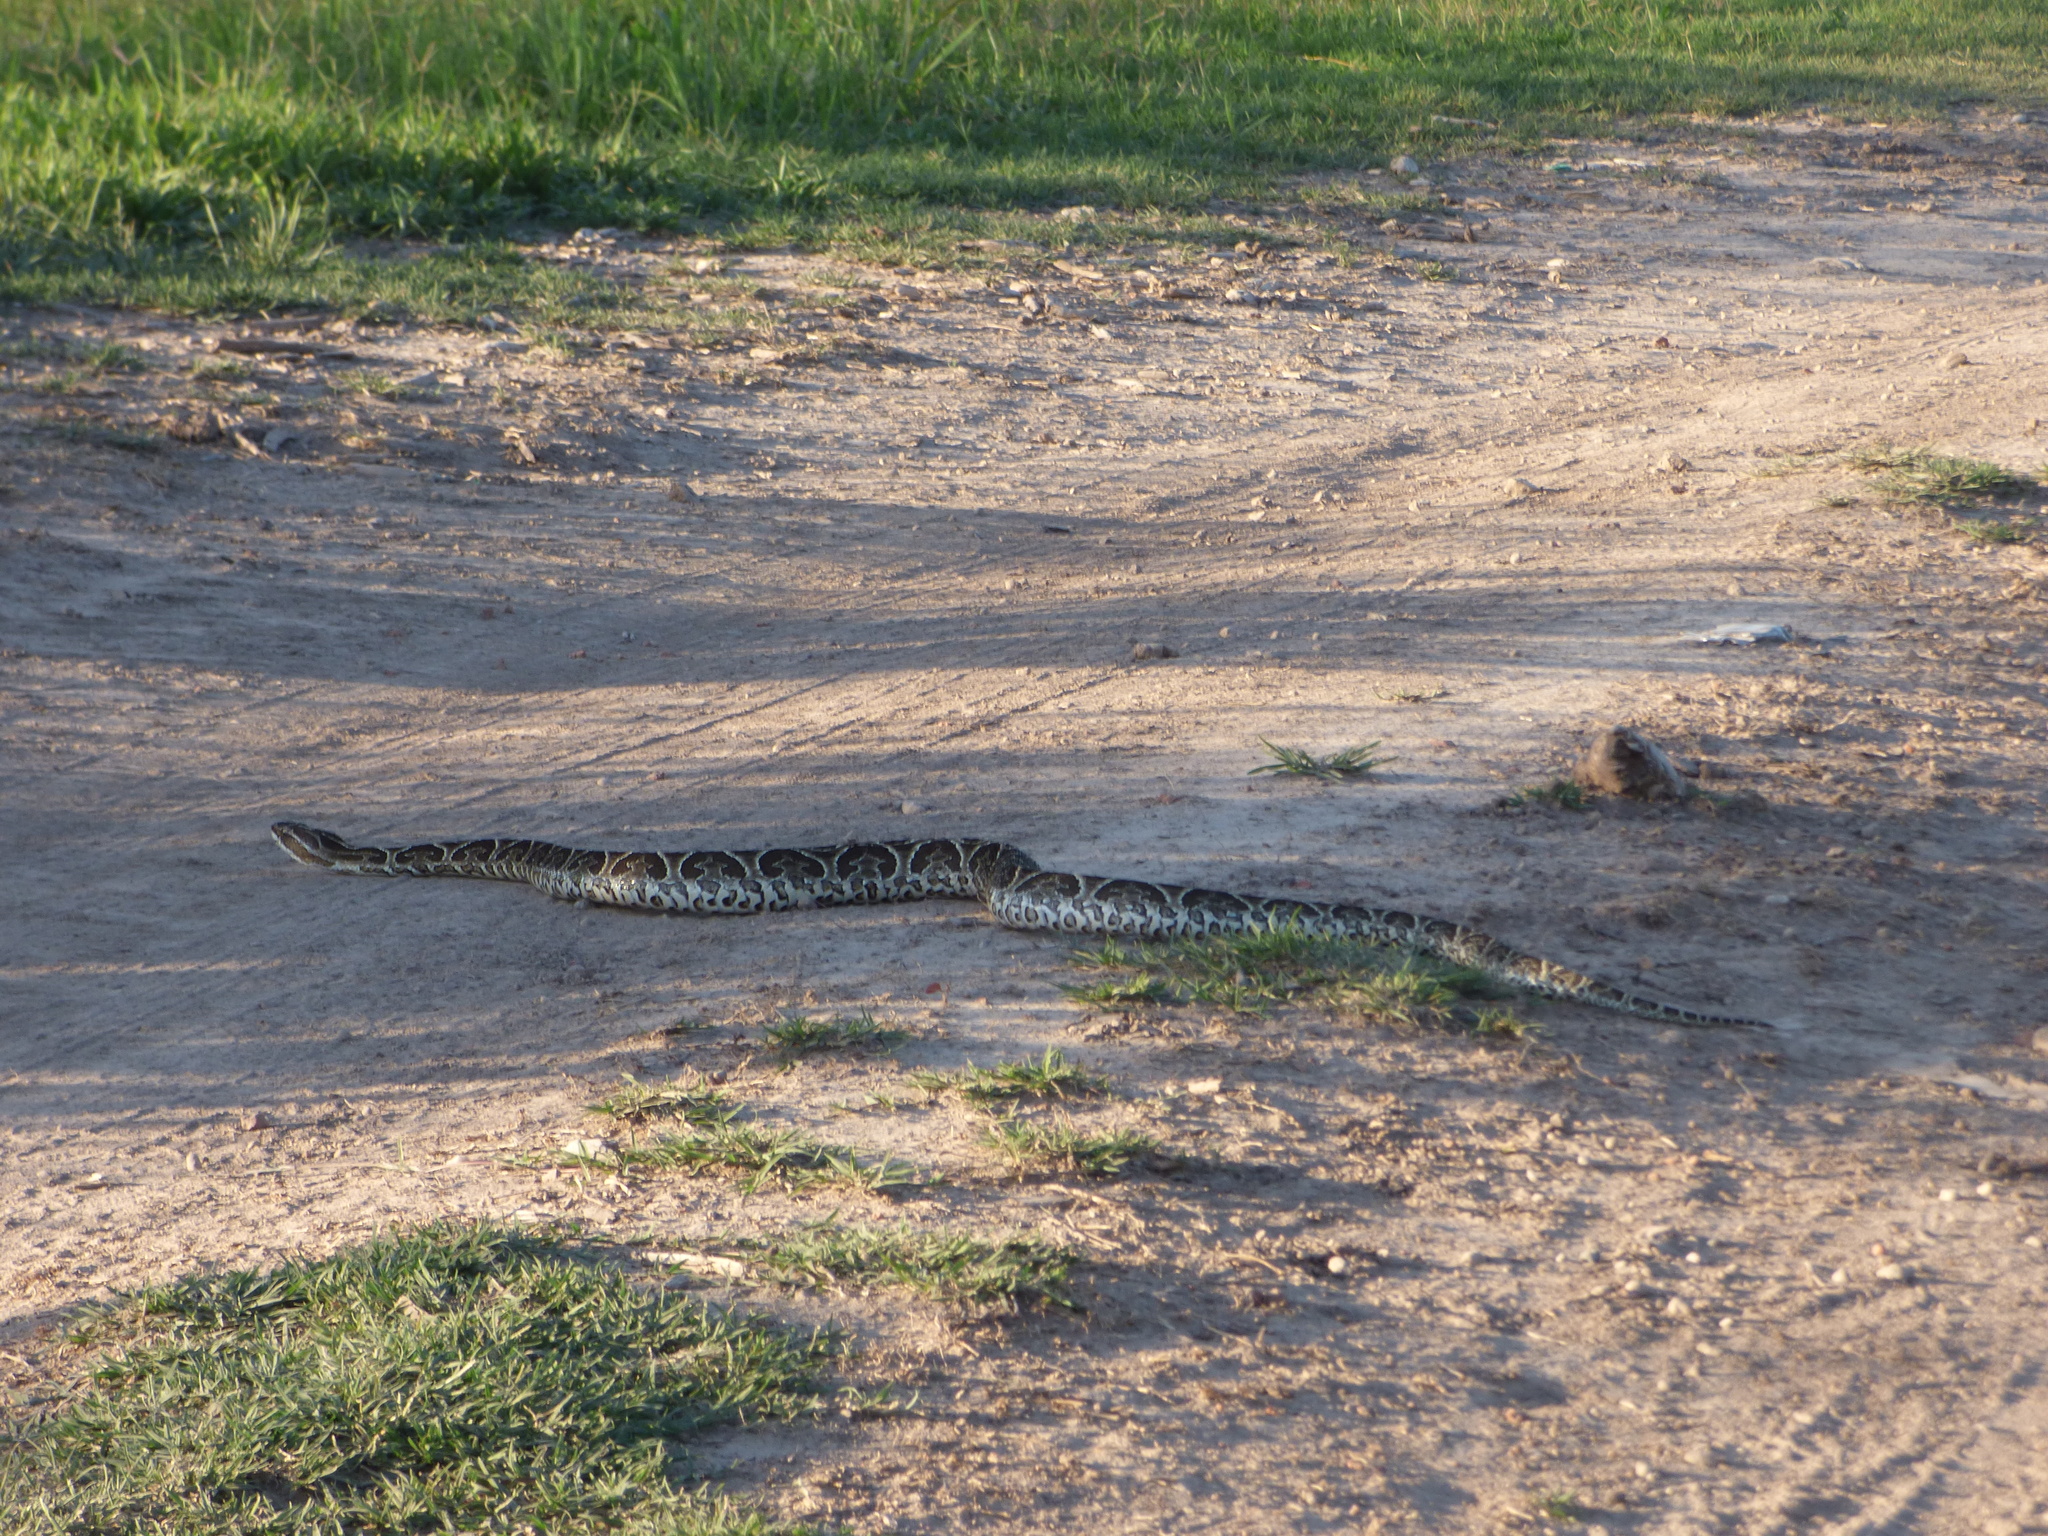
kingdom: Animalia
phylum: Chordata
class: Squamata
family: Viperidae
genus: Bothrops
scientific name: Bothrops alternatus
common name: Urutu
